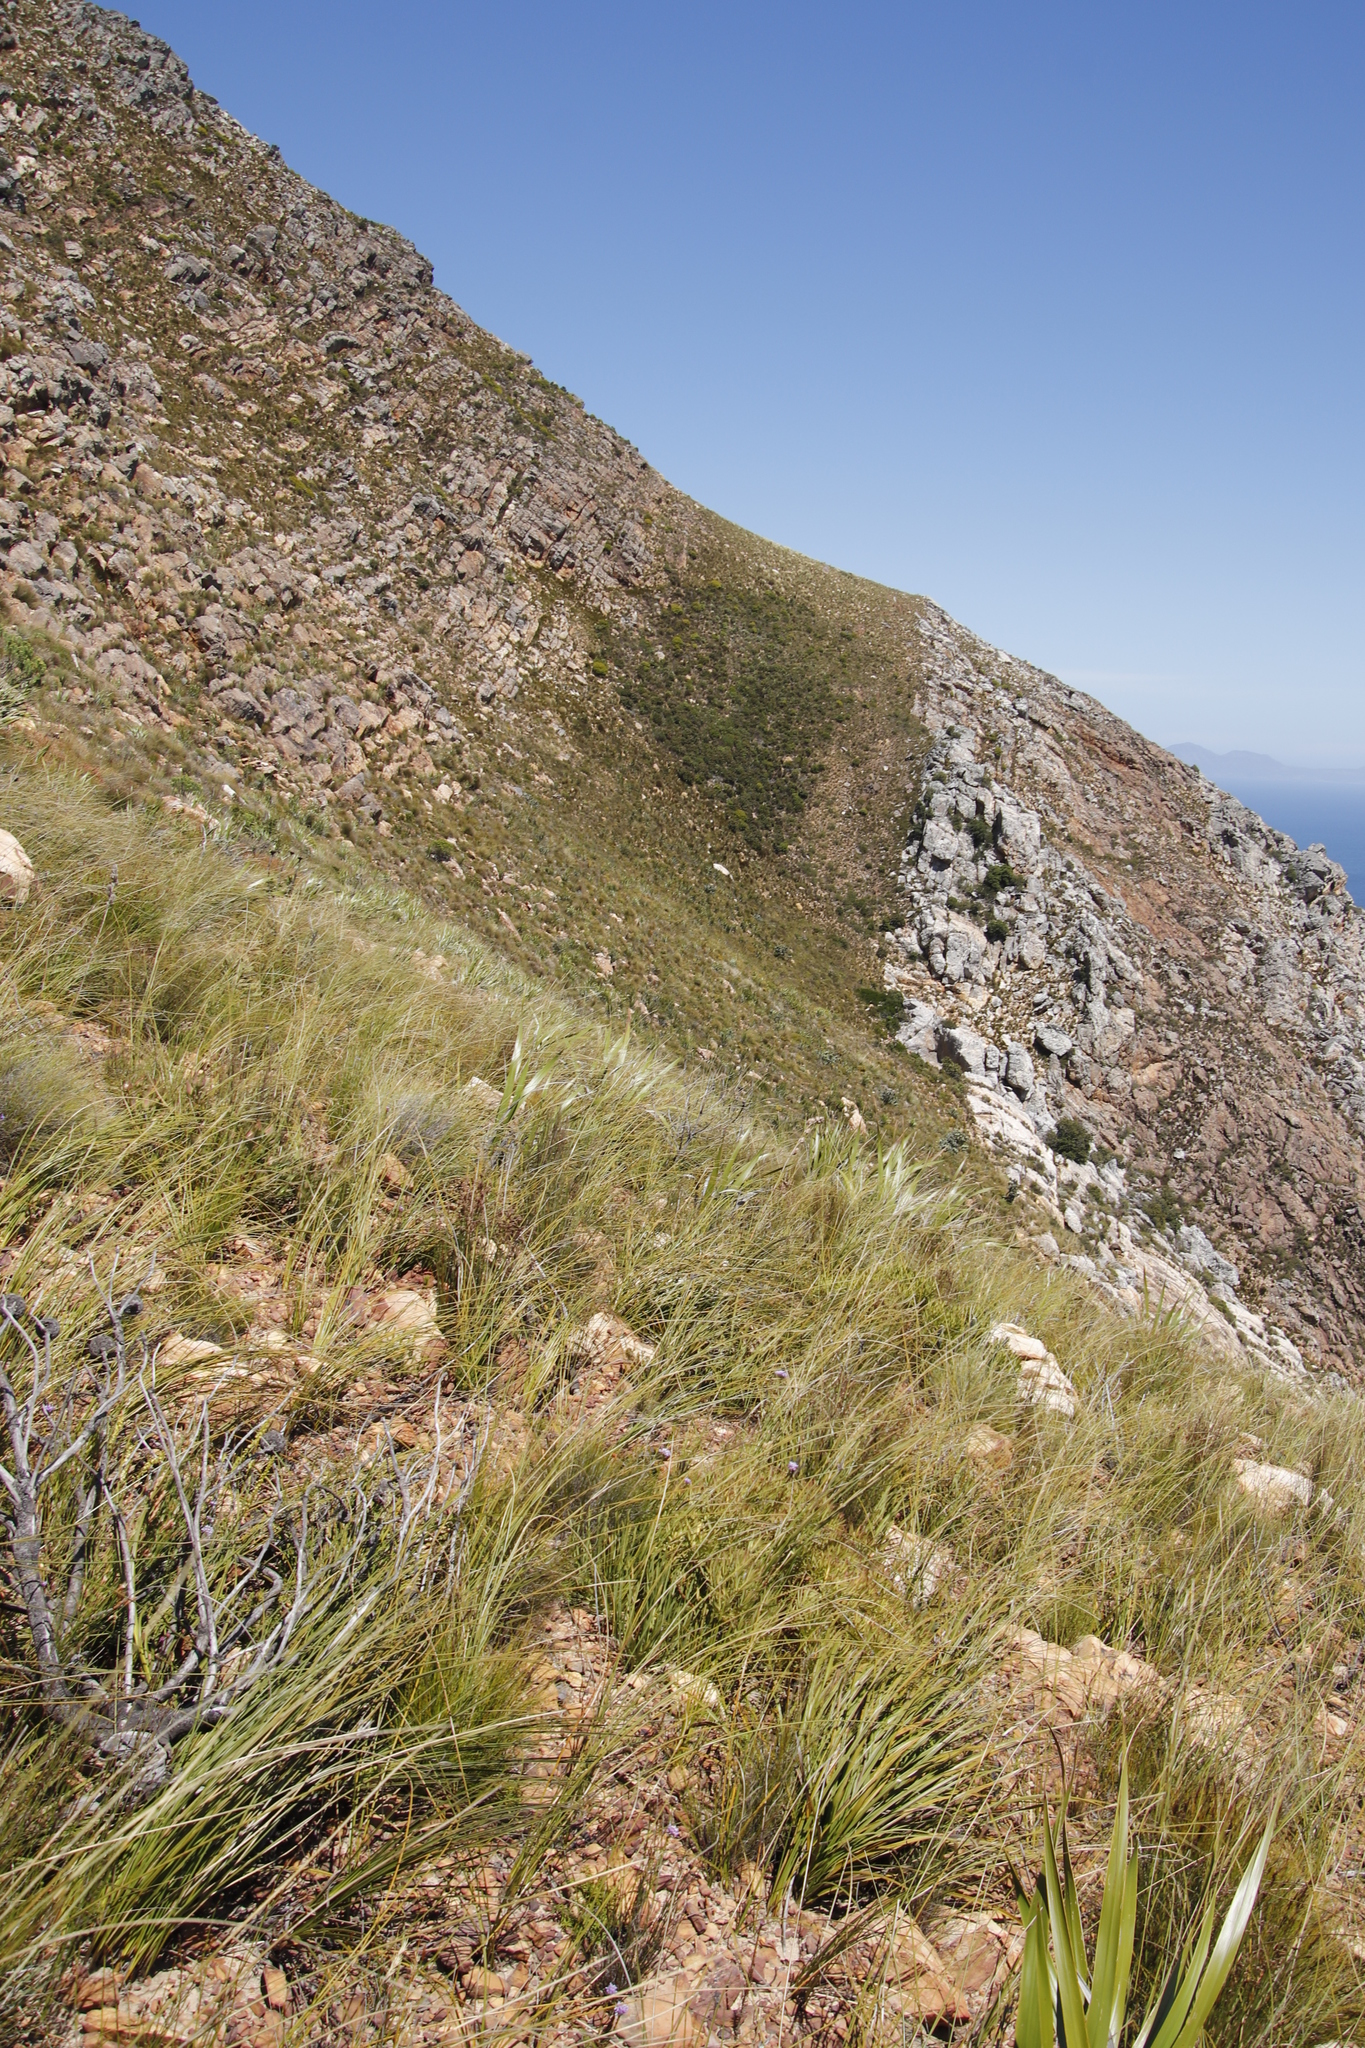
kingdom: Plantae
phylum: Tracheophyta
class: Magnoliopsida
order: Proteales
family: Proteaceae
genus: Protea
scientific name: Protea laurifolia
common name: Grey-leaf sugarbsh
